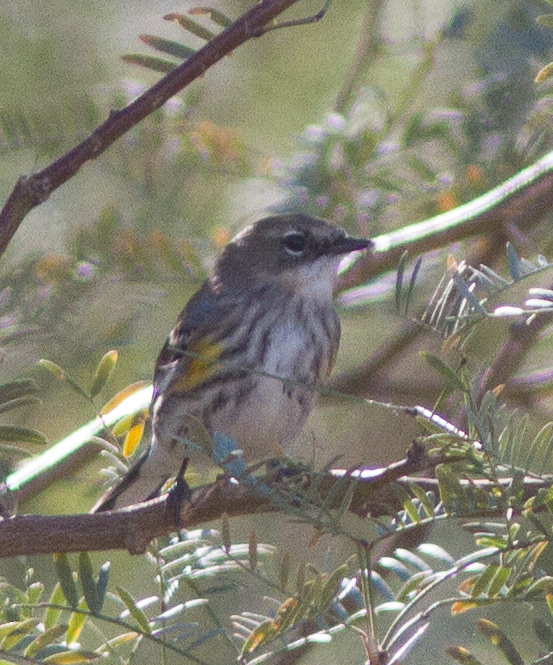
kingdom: Animalia
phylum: Chordata
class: Aves
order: Passeriformes
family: Parulidae
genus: Setophaga
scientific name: Setophaga coronata
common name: Myrtle warbler
